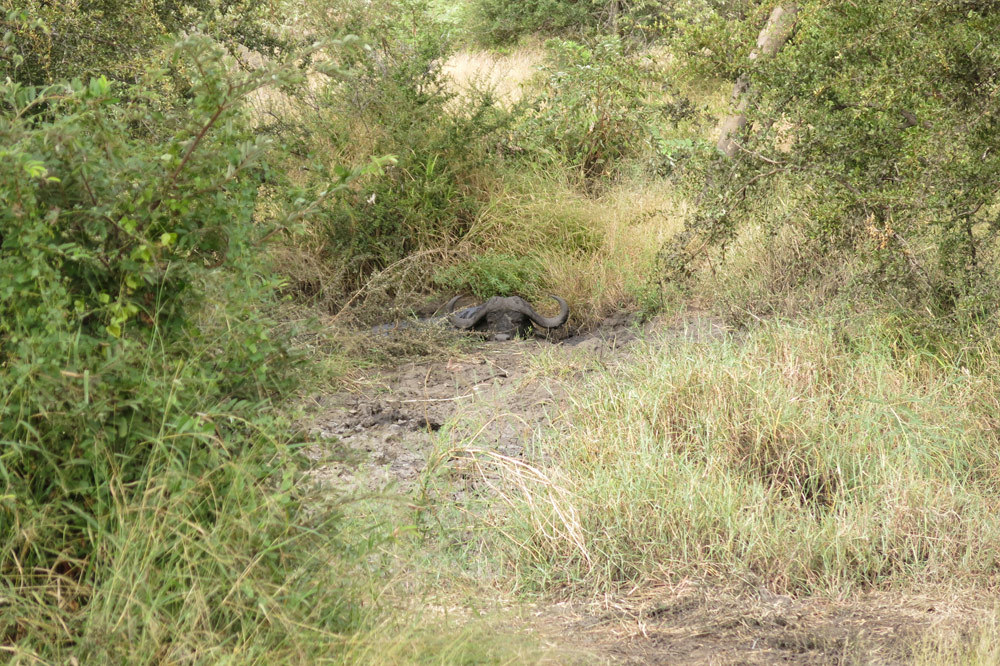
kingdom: Animalia
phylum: Chordata
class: Mammalia
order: Artiodactyla
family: Bovidae
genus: Syncerus
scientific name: Syncerus caffer
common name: African buffalo
